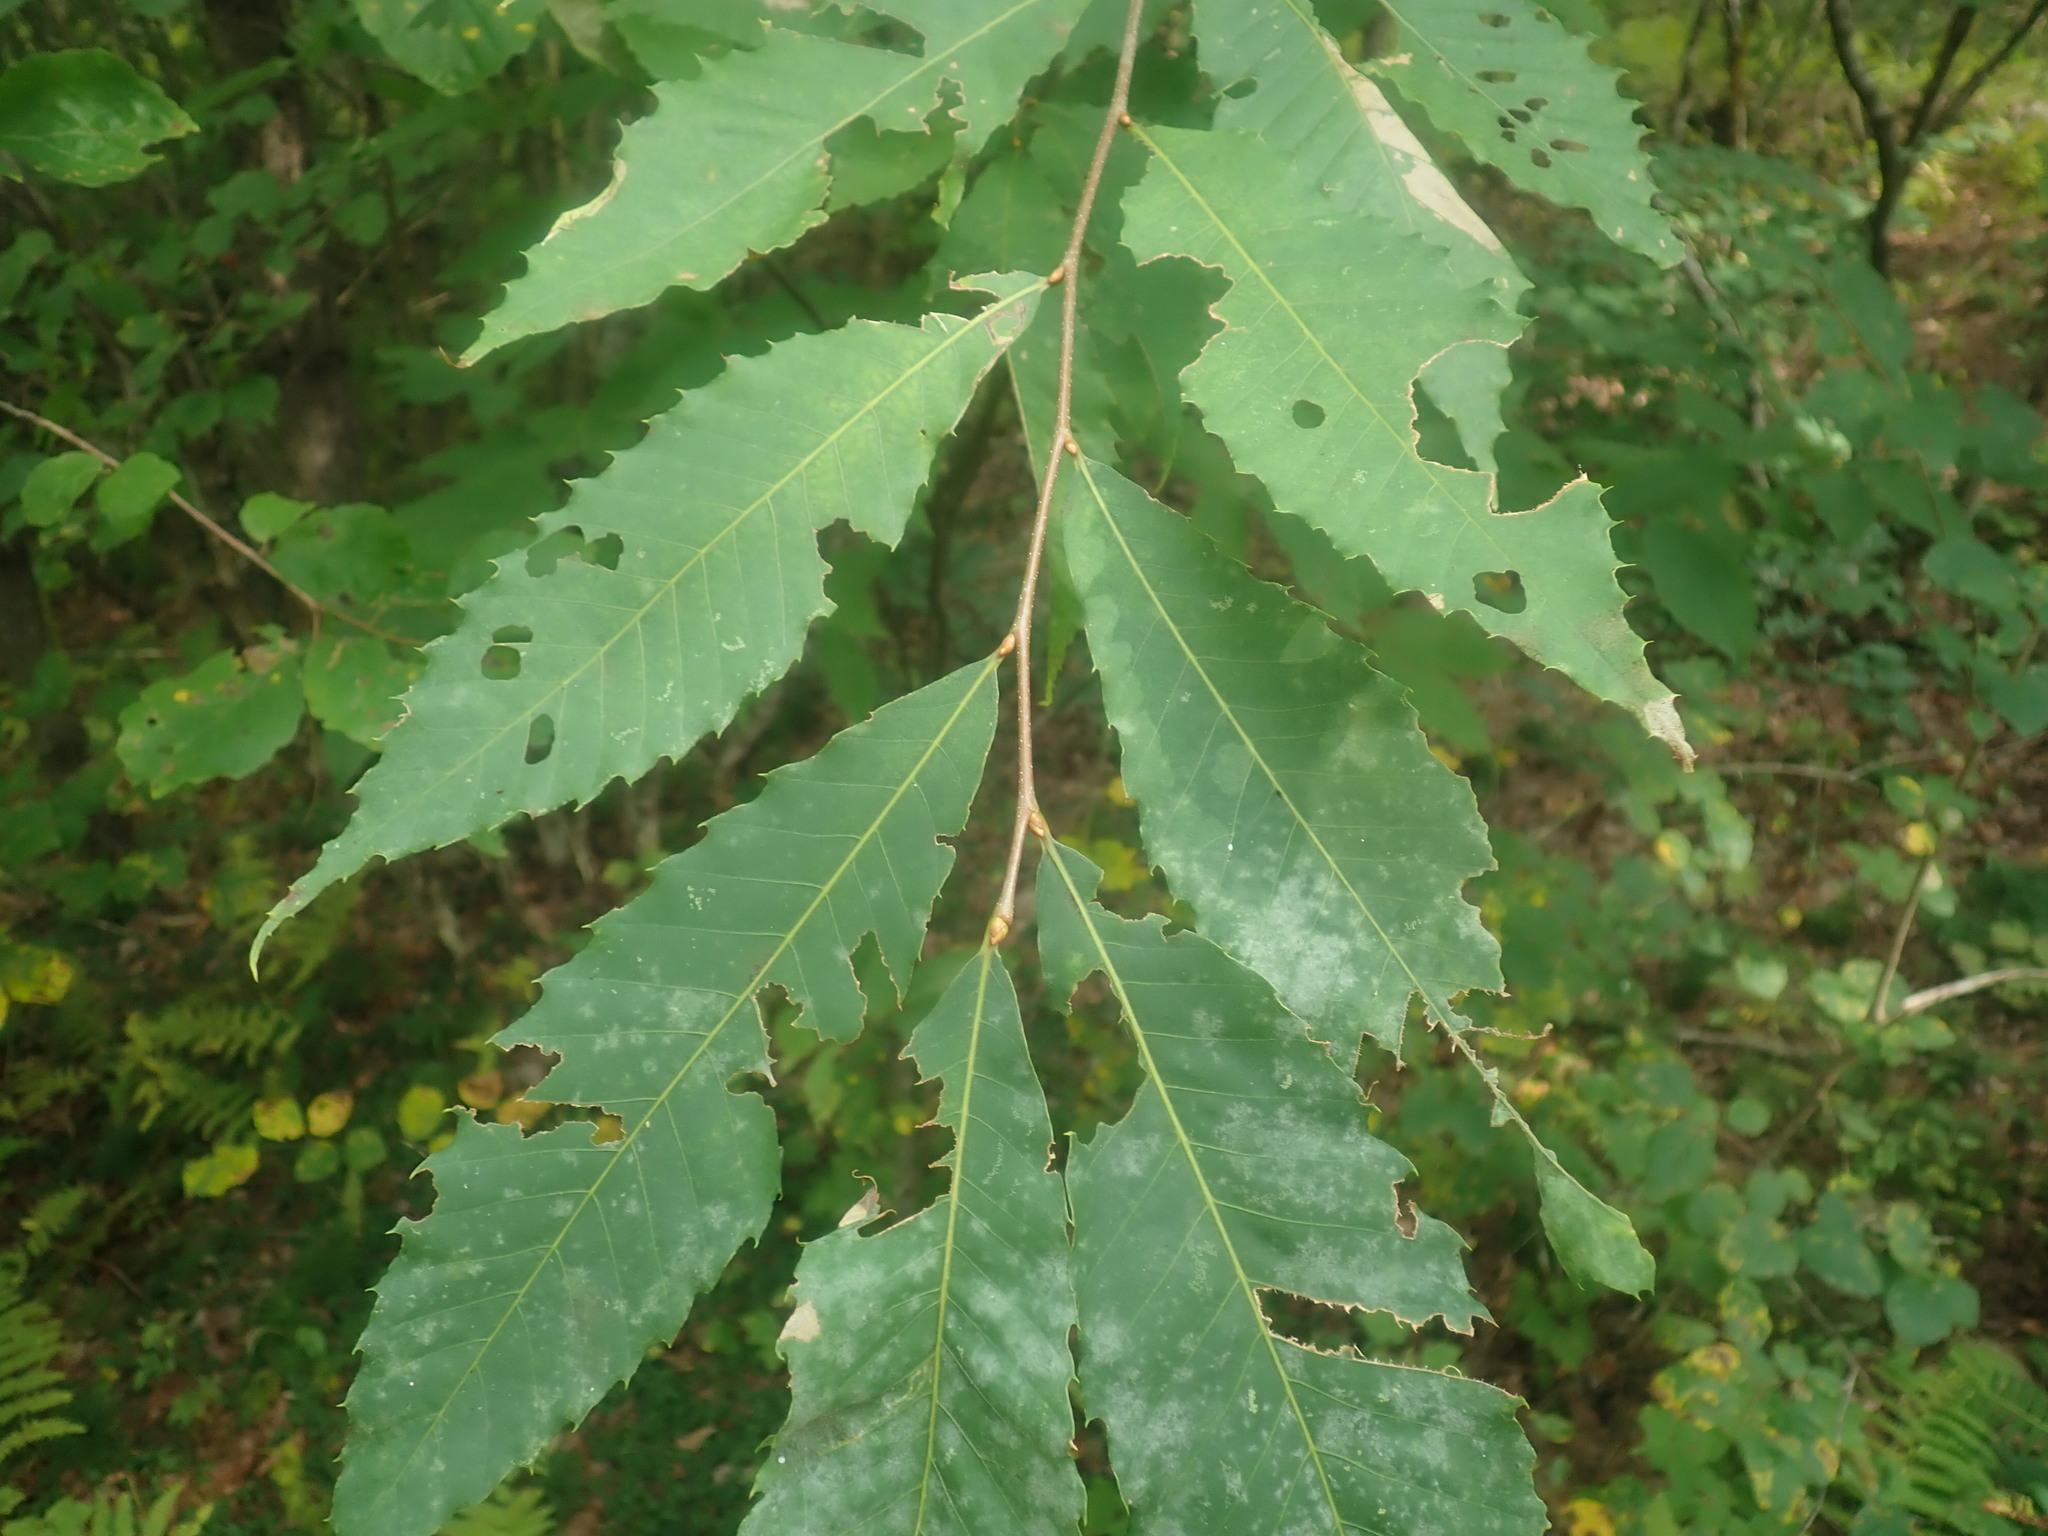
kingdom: Plantae
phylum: Tracheophyta
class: Magnoliopsida
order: Fagales
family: Fagaceae
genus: Castanea
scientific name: Castanea dentata
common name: American chestnut
